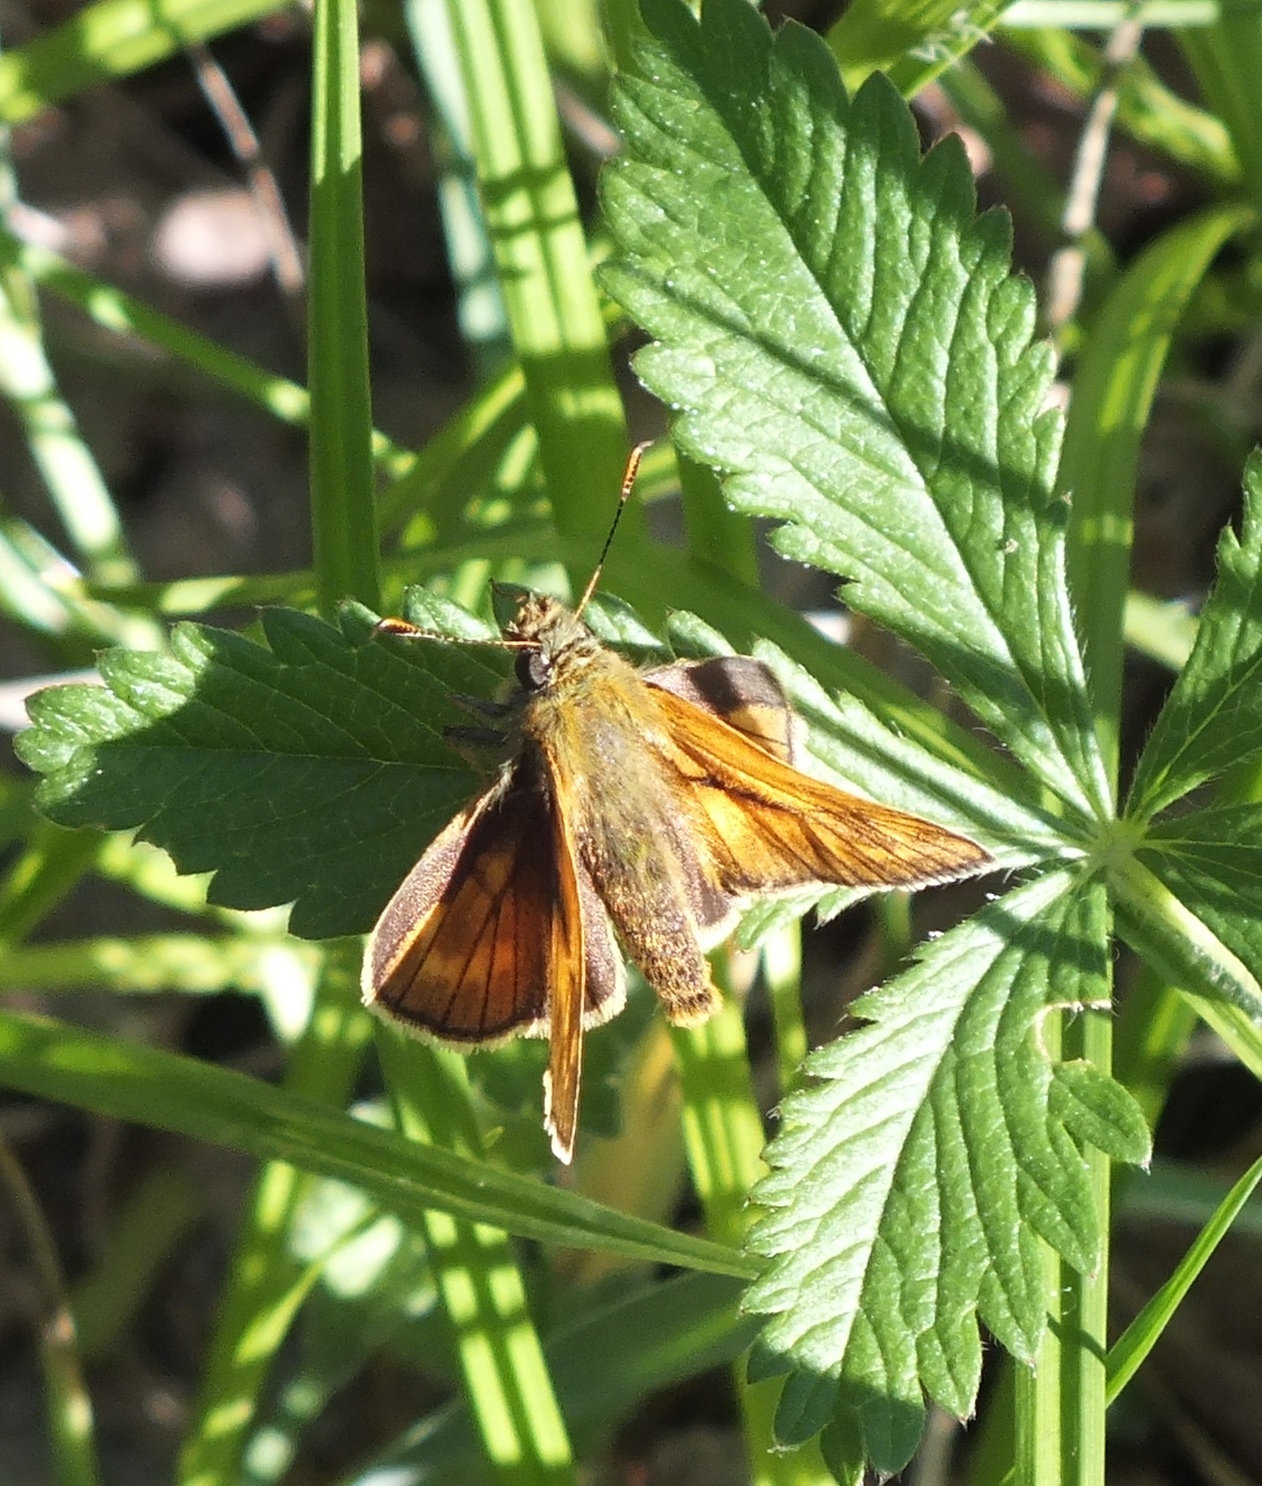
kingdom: Animalia
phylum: Arthropoda
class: Insecta
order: Lepidoptera
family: Hesperiidae
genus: Ochlodes
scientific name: Ochlodes venata
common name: Large skipper
